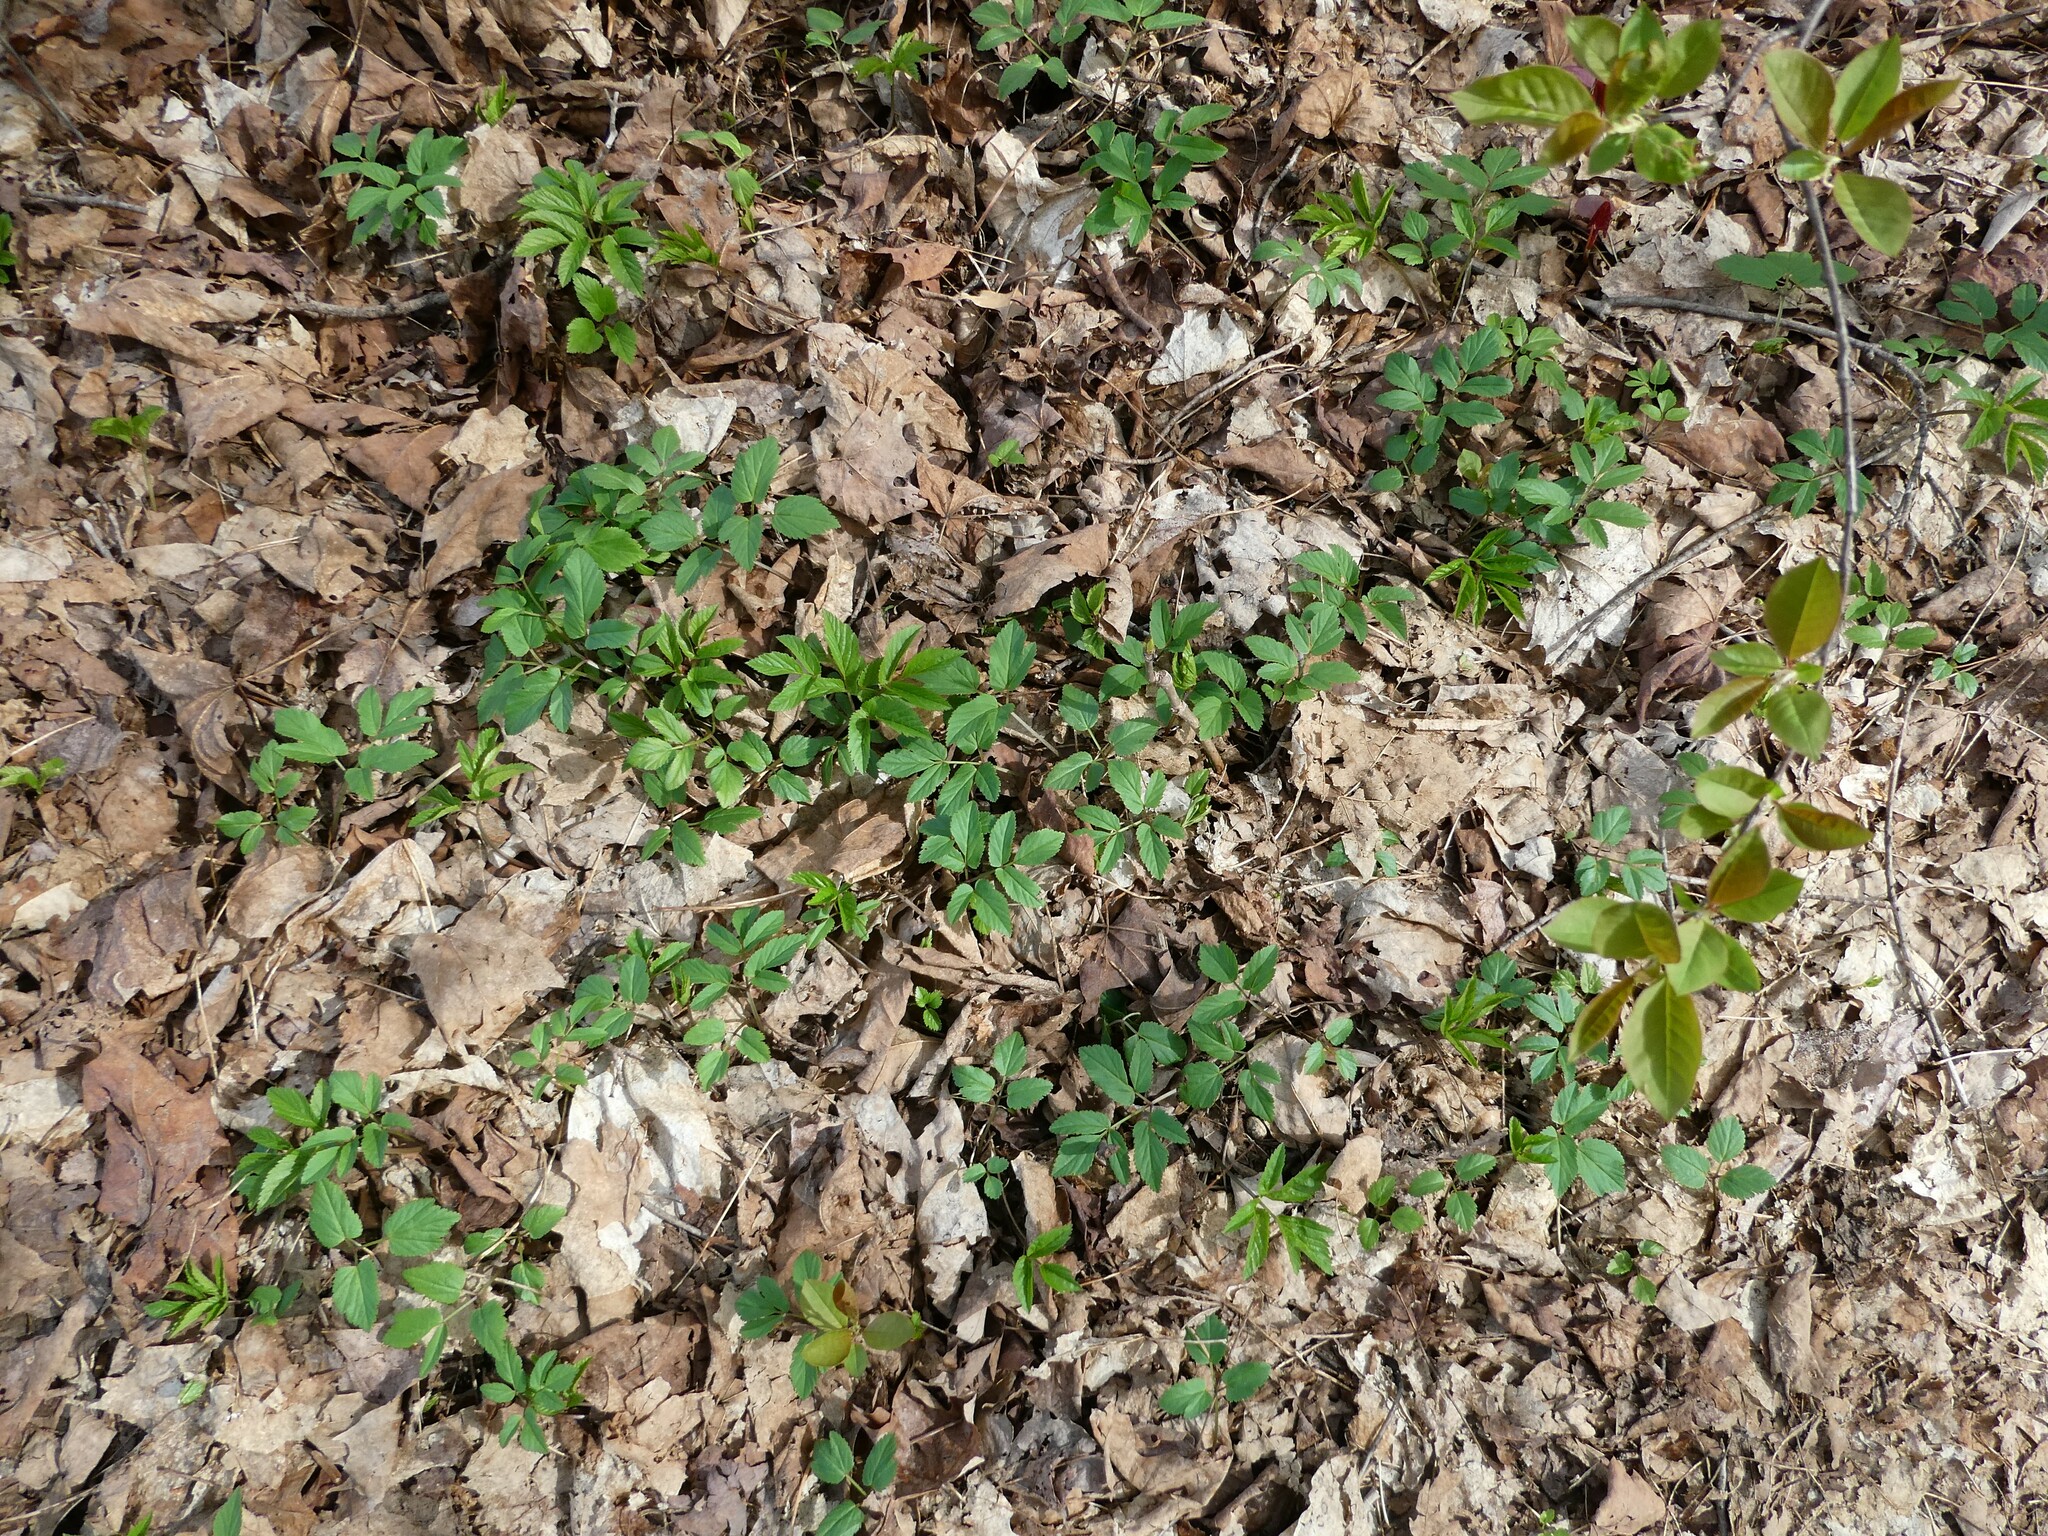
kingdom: Plantae
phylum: Tracheophyta
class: Magnoliopsida
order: Apiales
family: Apiaceae
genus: Aegopodium
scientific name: Aegopodium podagraria
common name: Ground-elder
